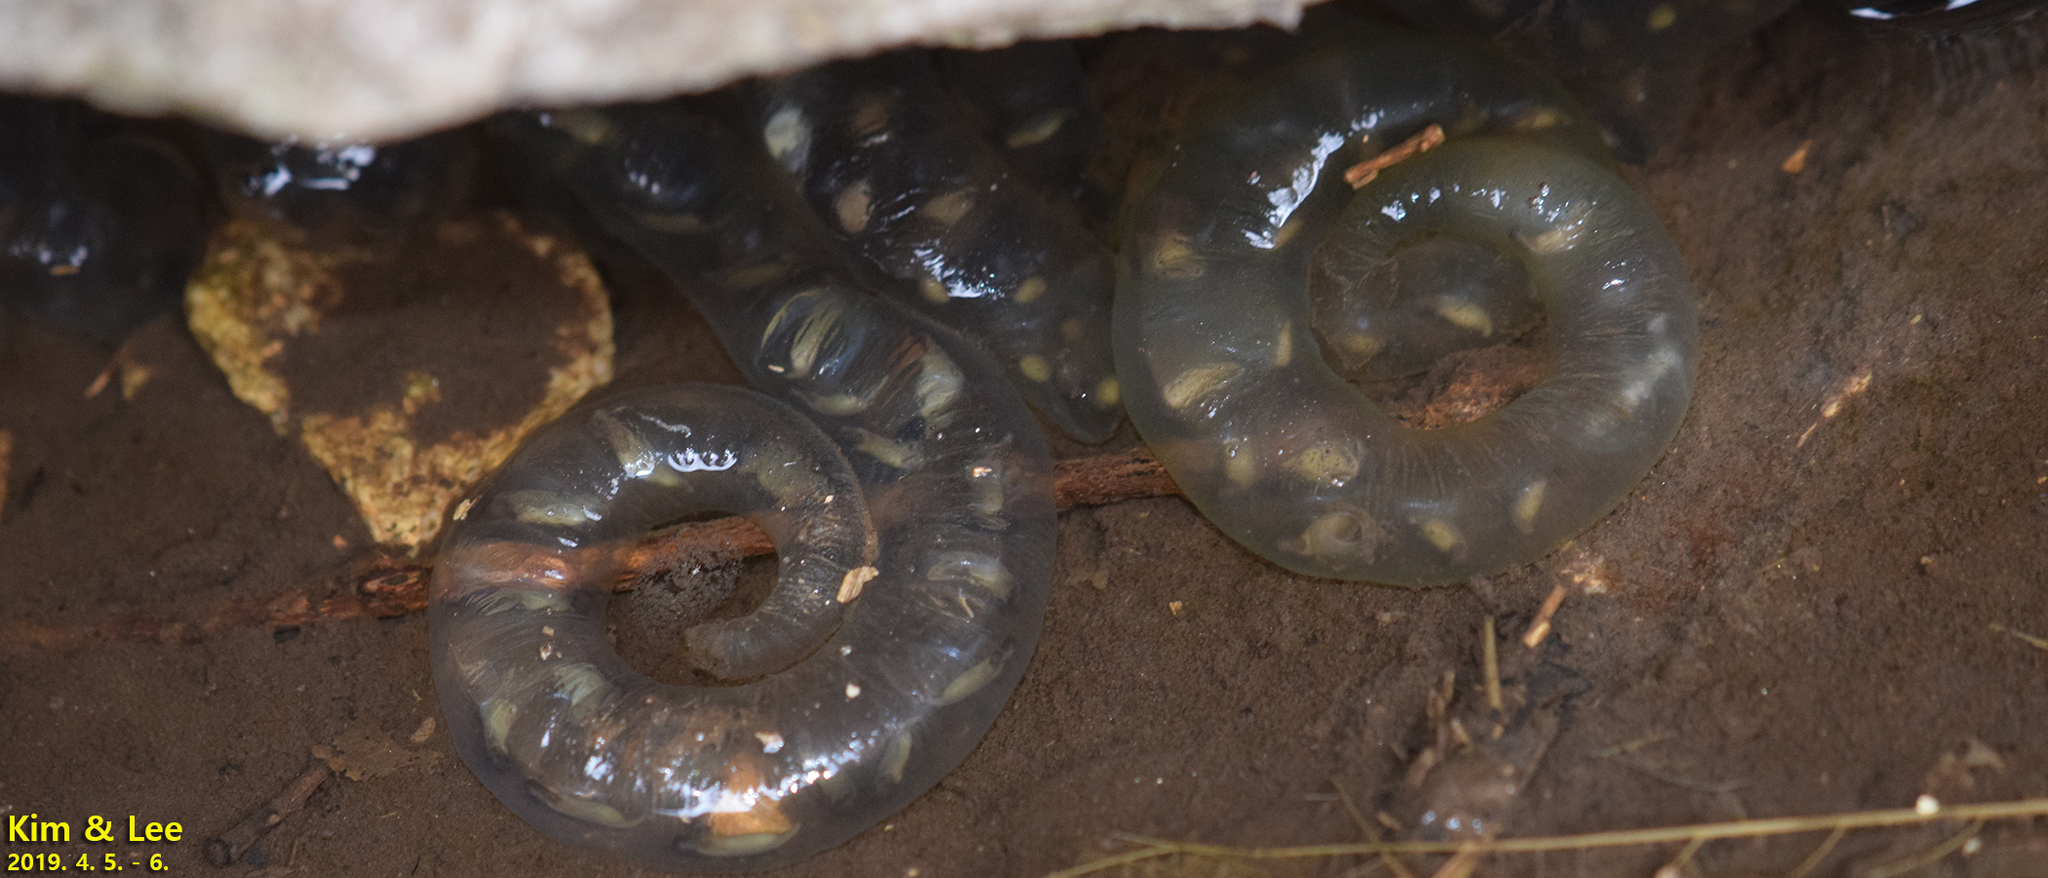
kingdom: Animalia
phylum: Chordata
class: Amphibia
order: Caudata
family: Hynobiidae
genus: Hynobius
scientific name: Hynobius leechii
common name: Gensan salamander
